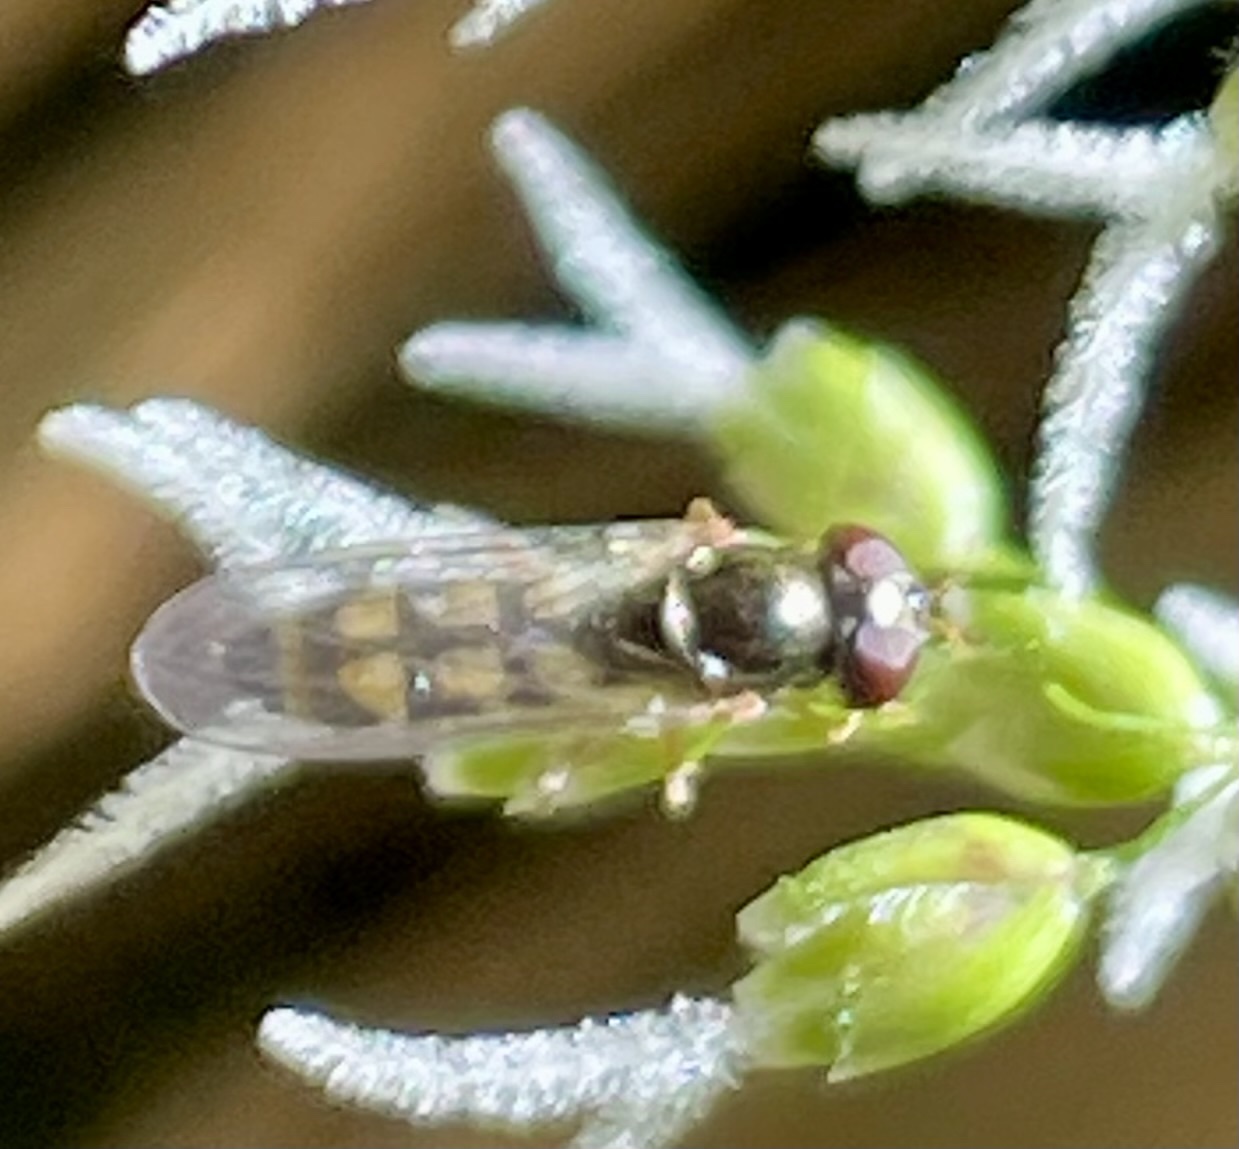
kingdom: Animalia
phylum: Arthropoda
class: Insecta
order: Diptera
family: Syrphidae
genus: Melanostoma
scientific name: Melanostoma mellina
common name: Hover fly
